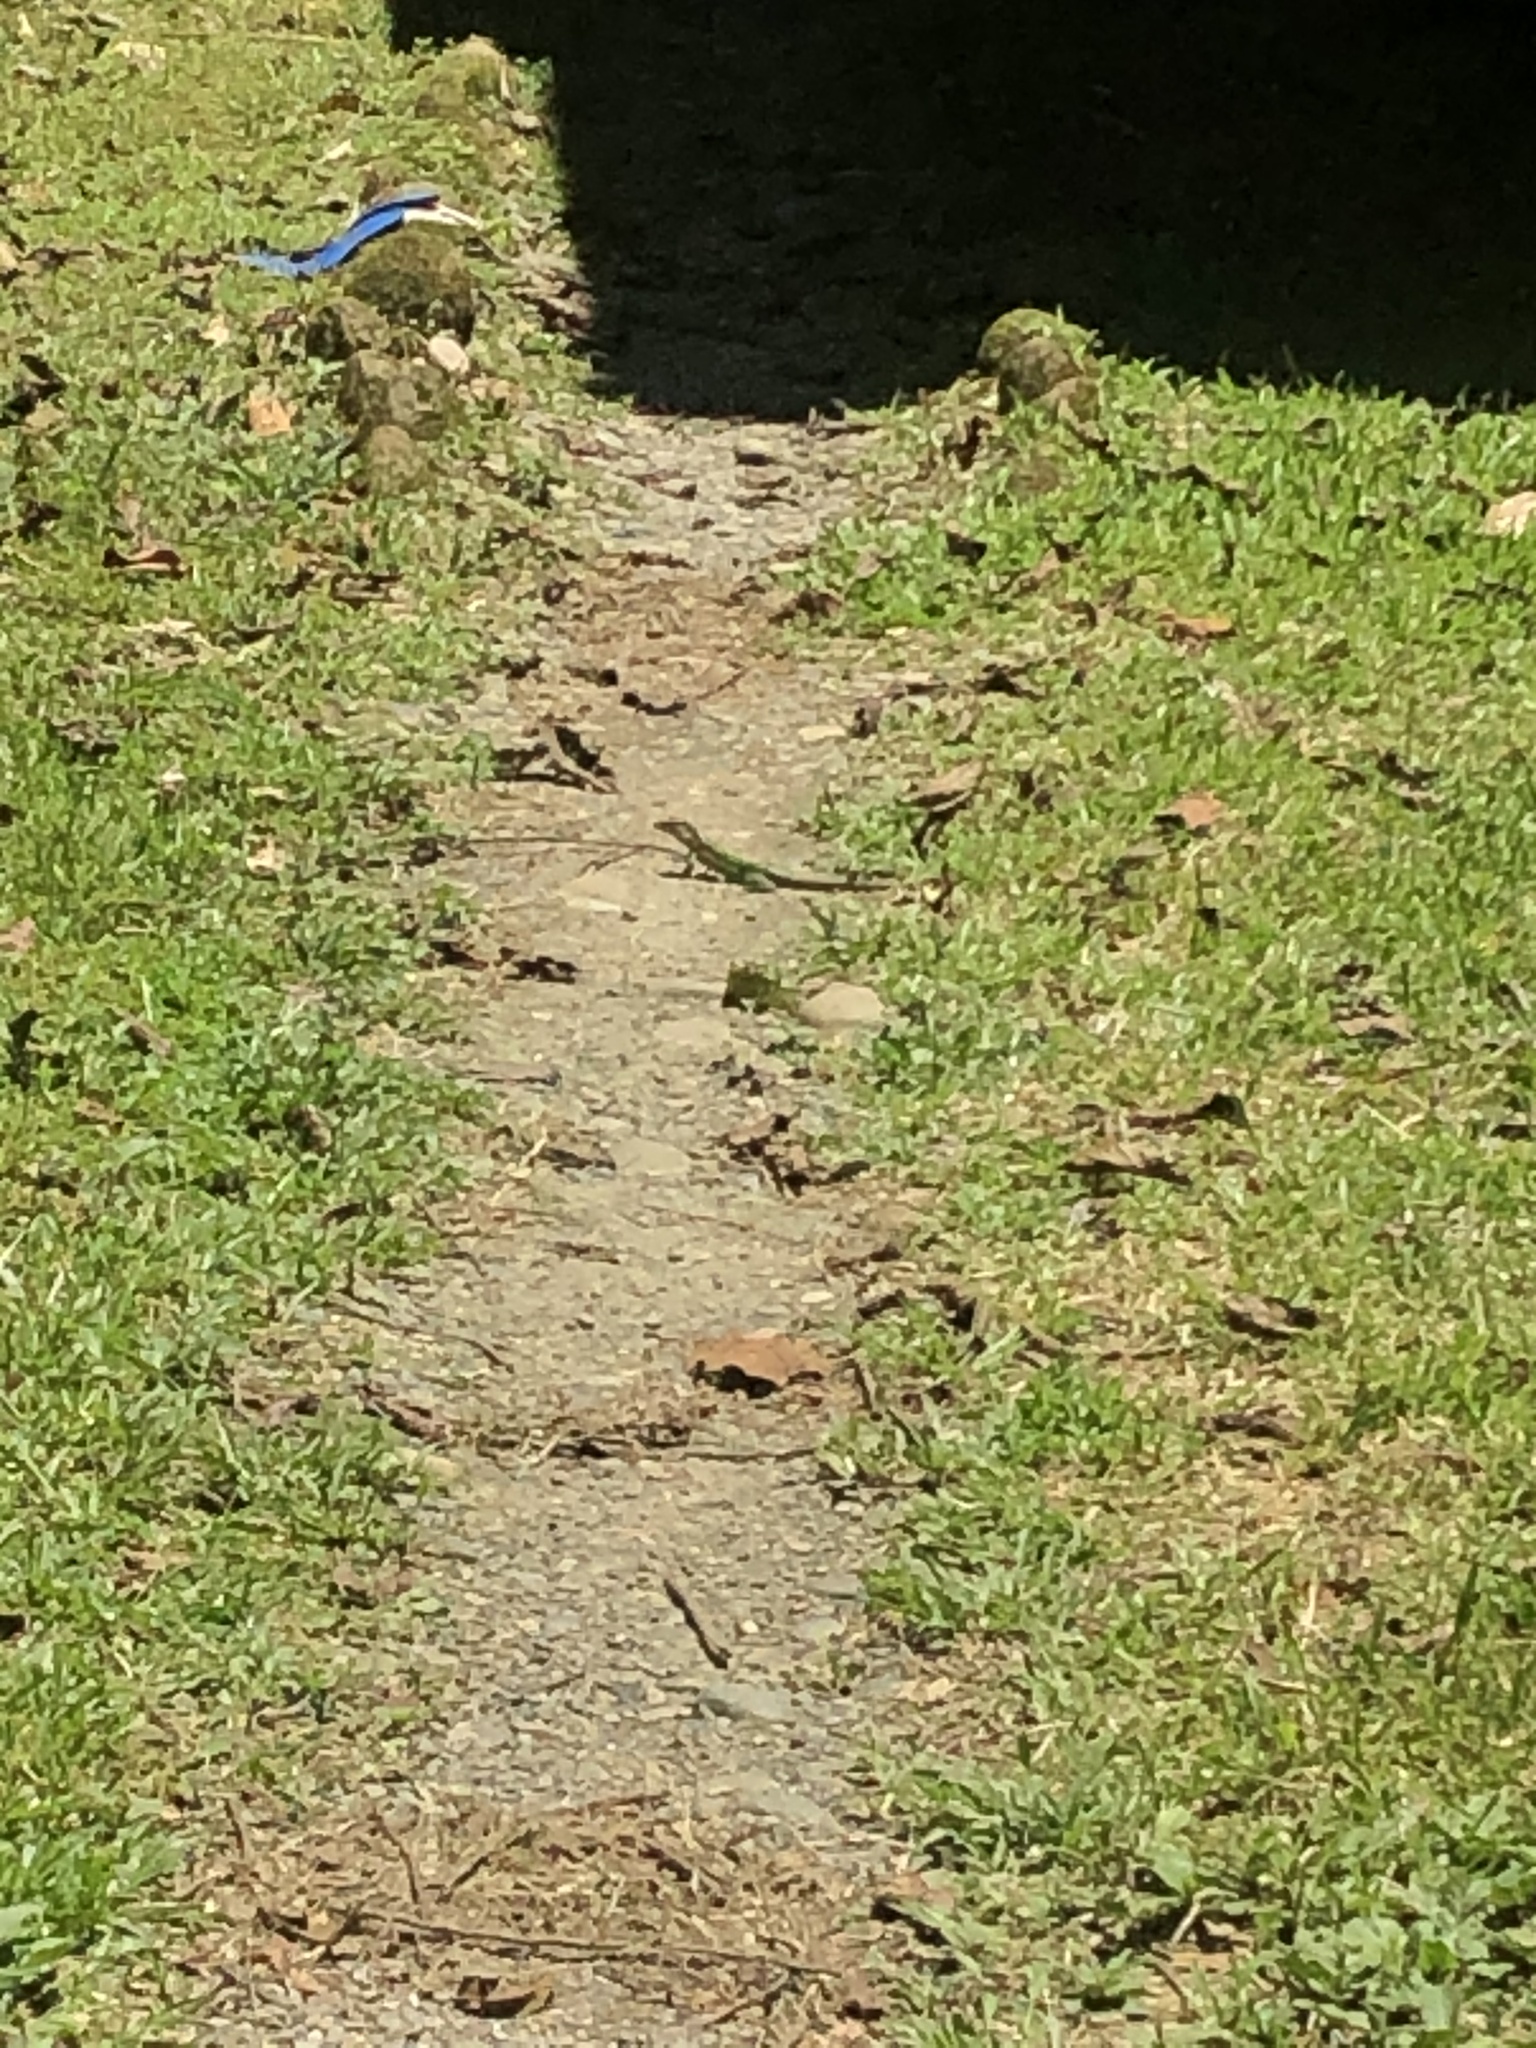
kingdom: Animalia
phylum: Chordata
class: Squamata
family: Teiidae
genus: Ameiva
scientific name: Ameiva ameiva
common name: Giant ameiva
